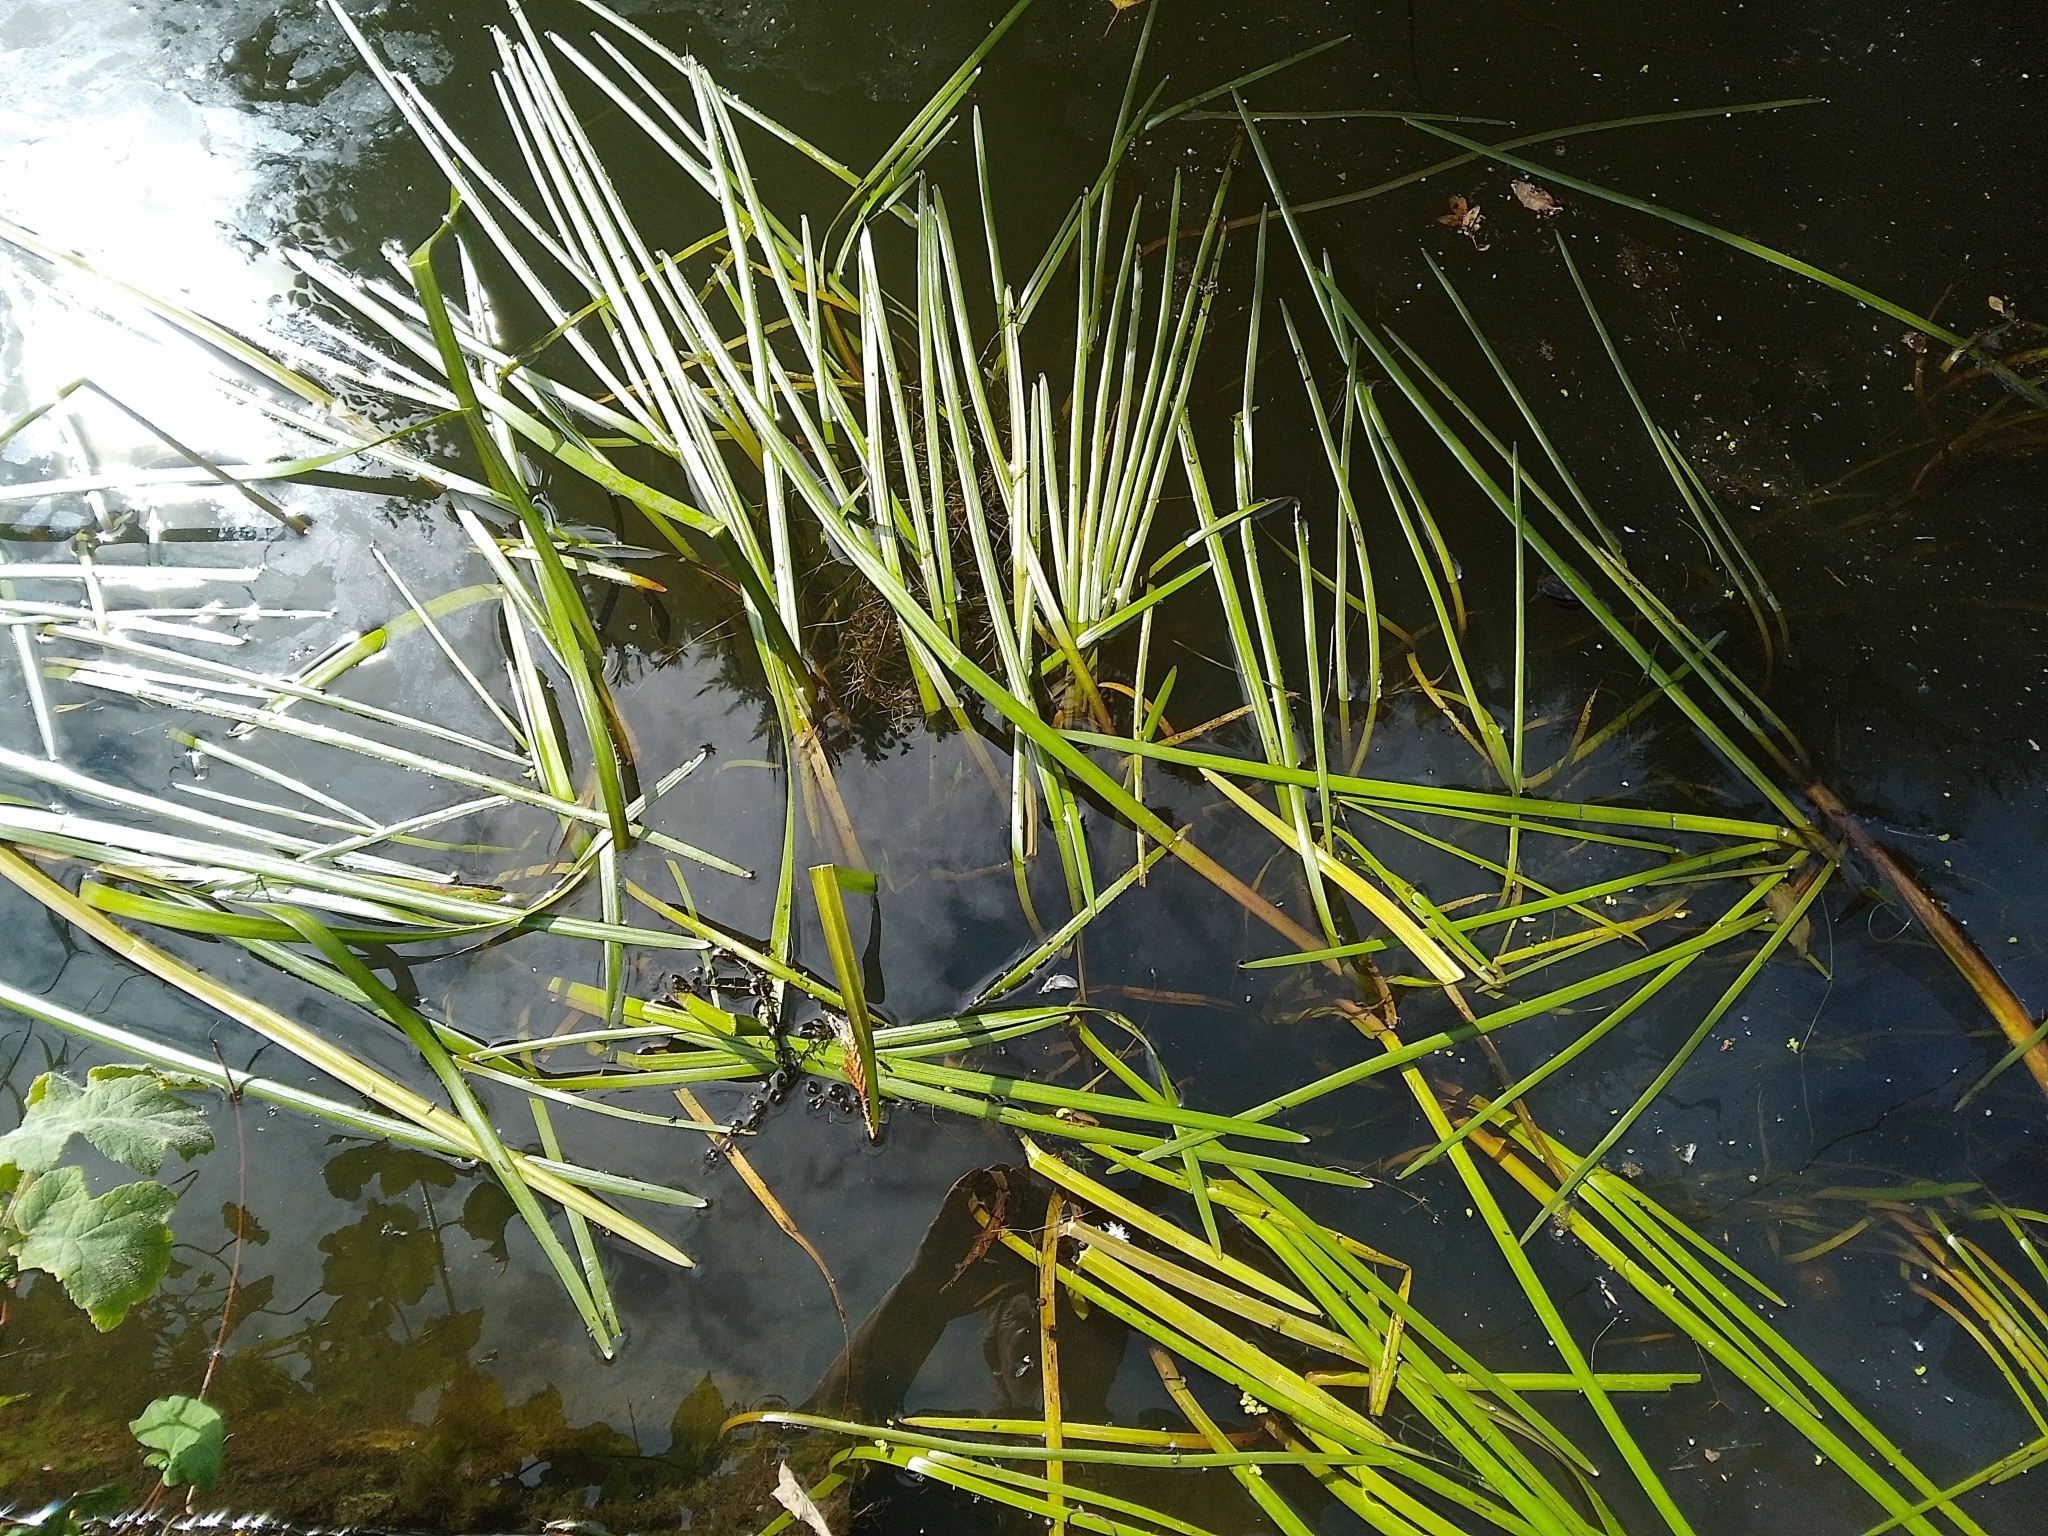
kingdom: Plantae
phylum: Tracheophyta
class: Liliopsida
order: Poales
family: Typhaceae
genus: Sparganium
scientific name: Sparganium angustifolium
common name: Floating bur-reed
